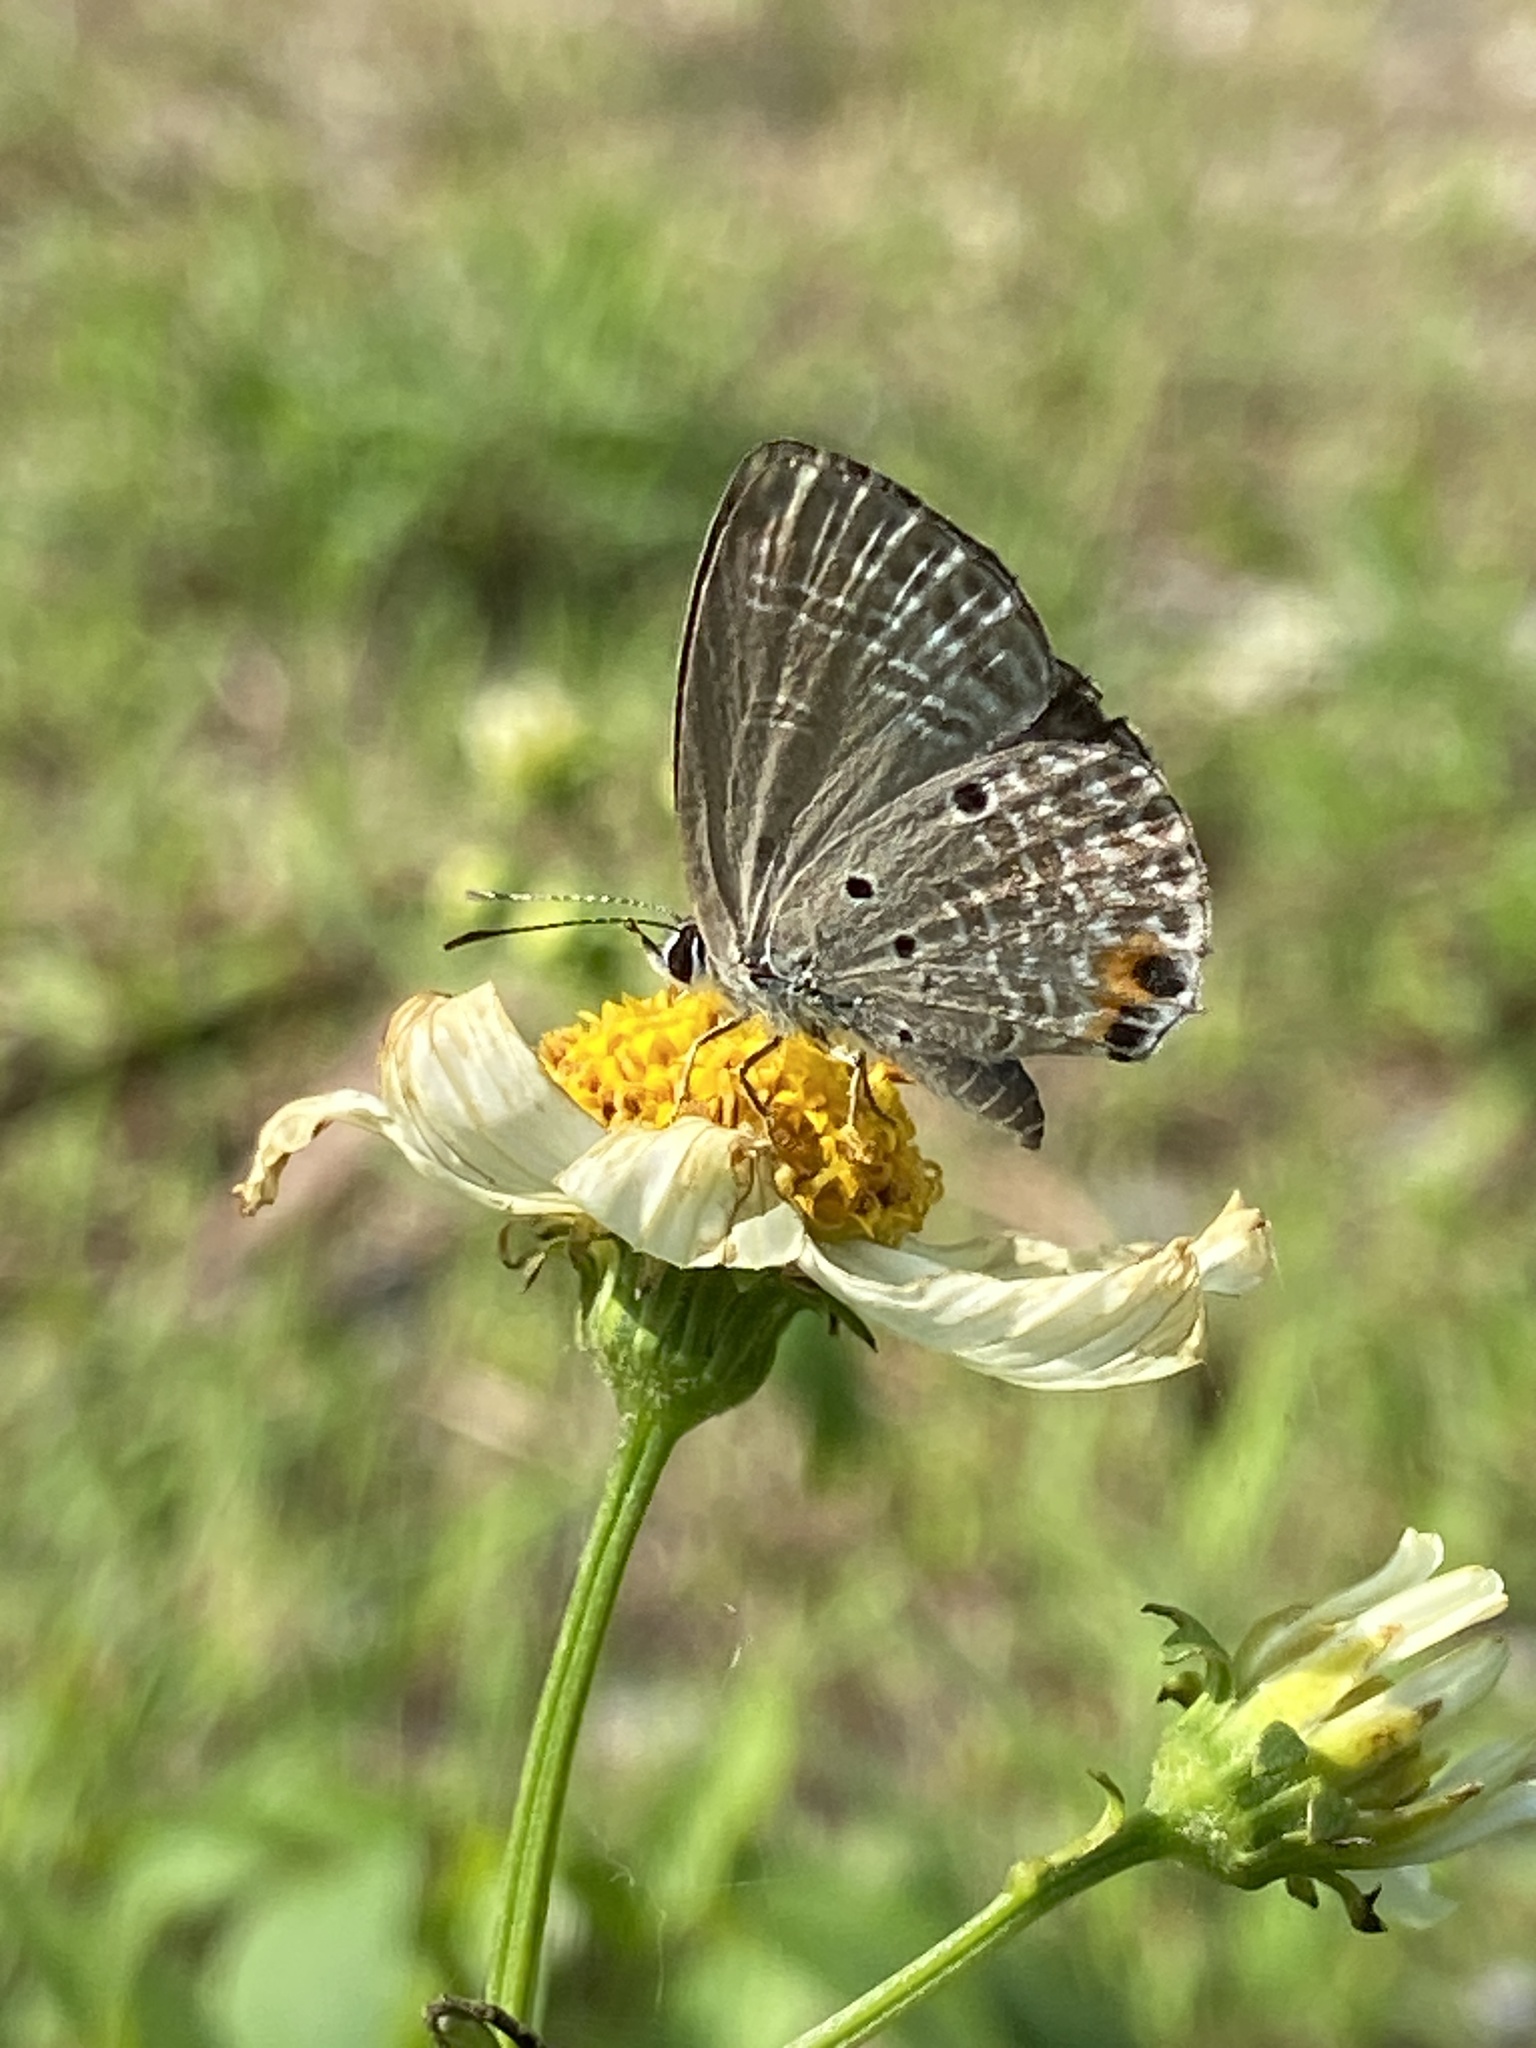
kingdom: Animalia
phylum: Arthropoda
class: Insecta
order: Lepidoptera
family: Lycaenidae
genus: Luthrodes
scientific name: Luthrodes pandava
